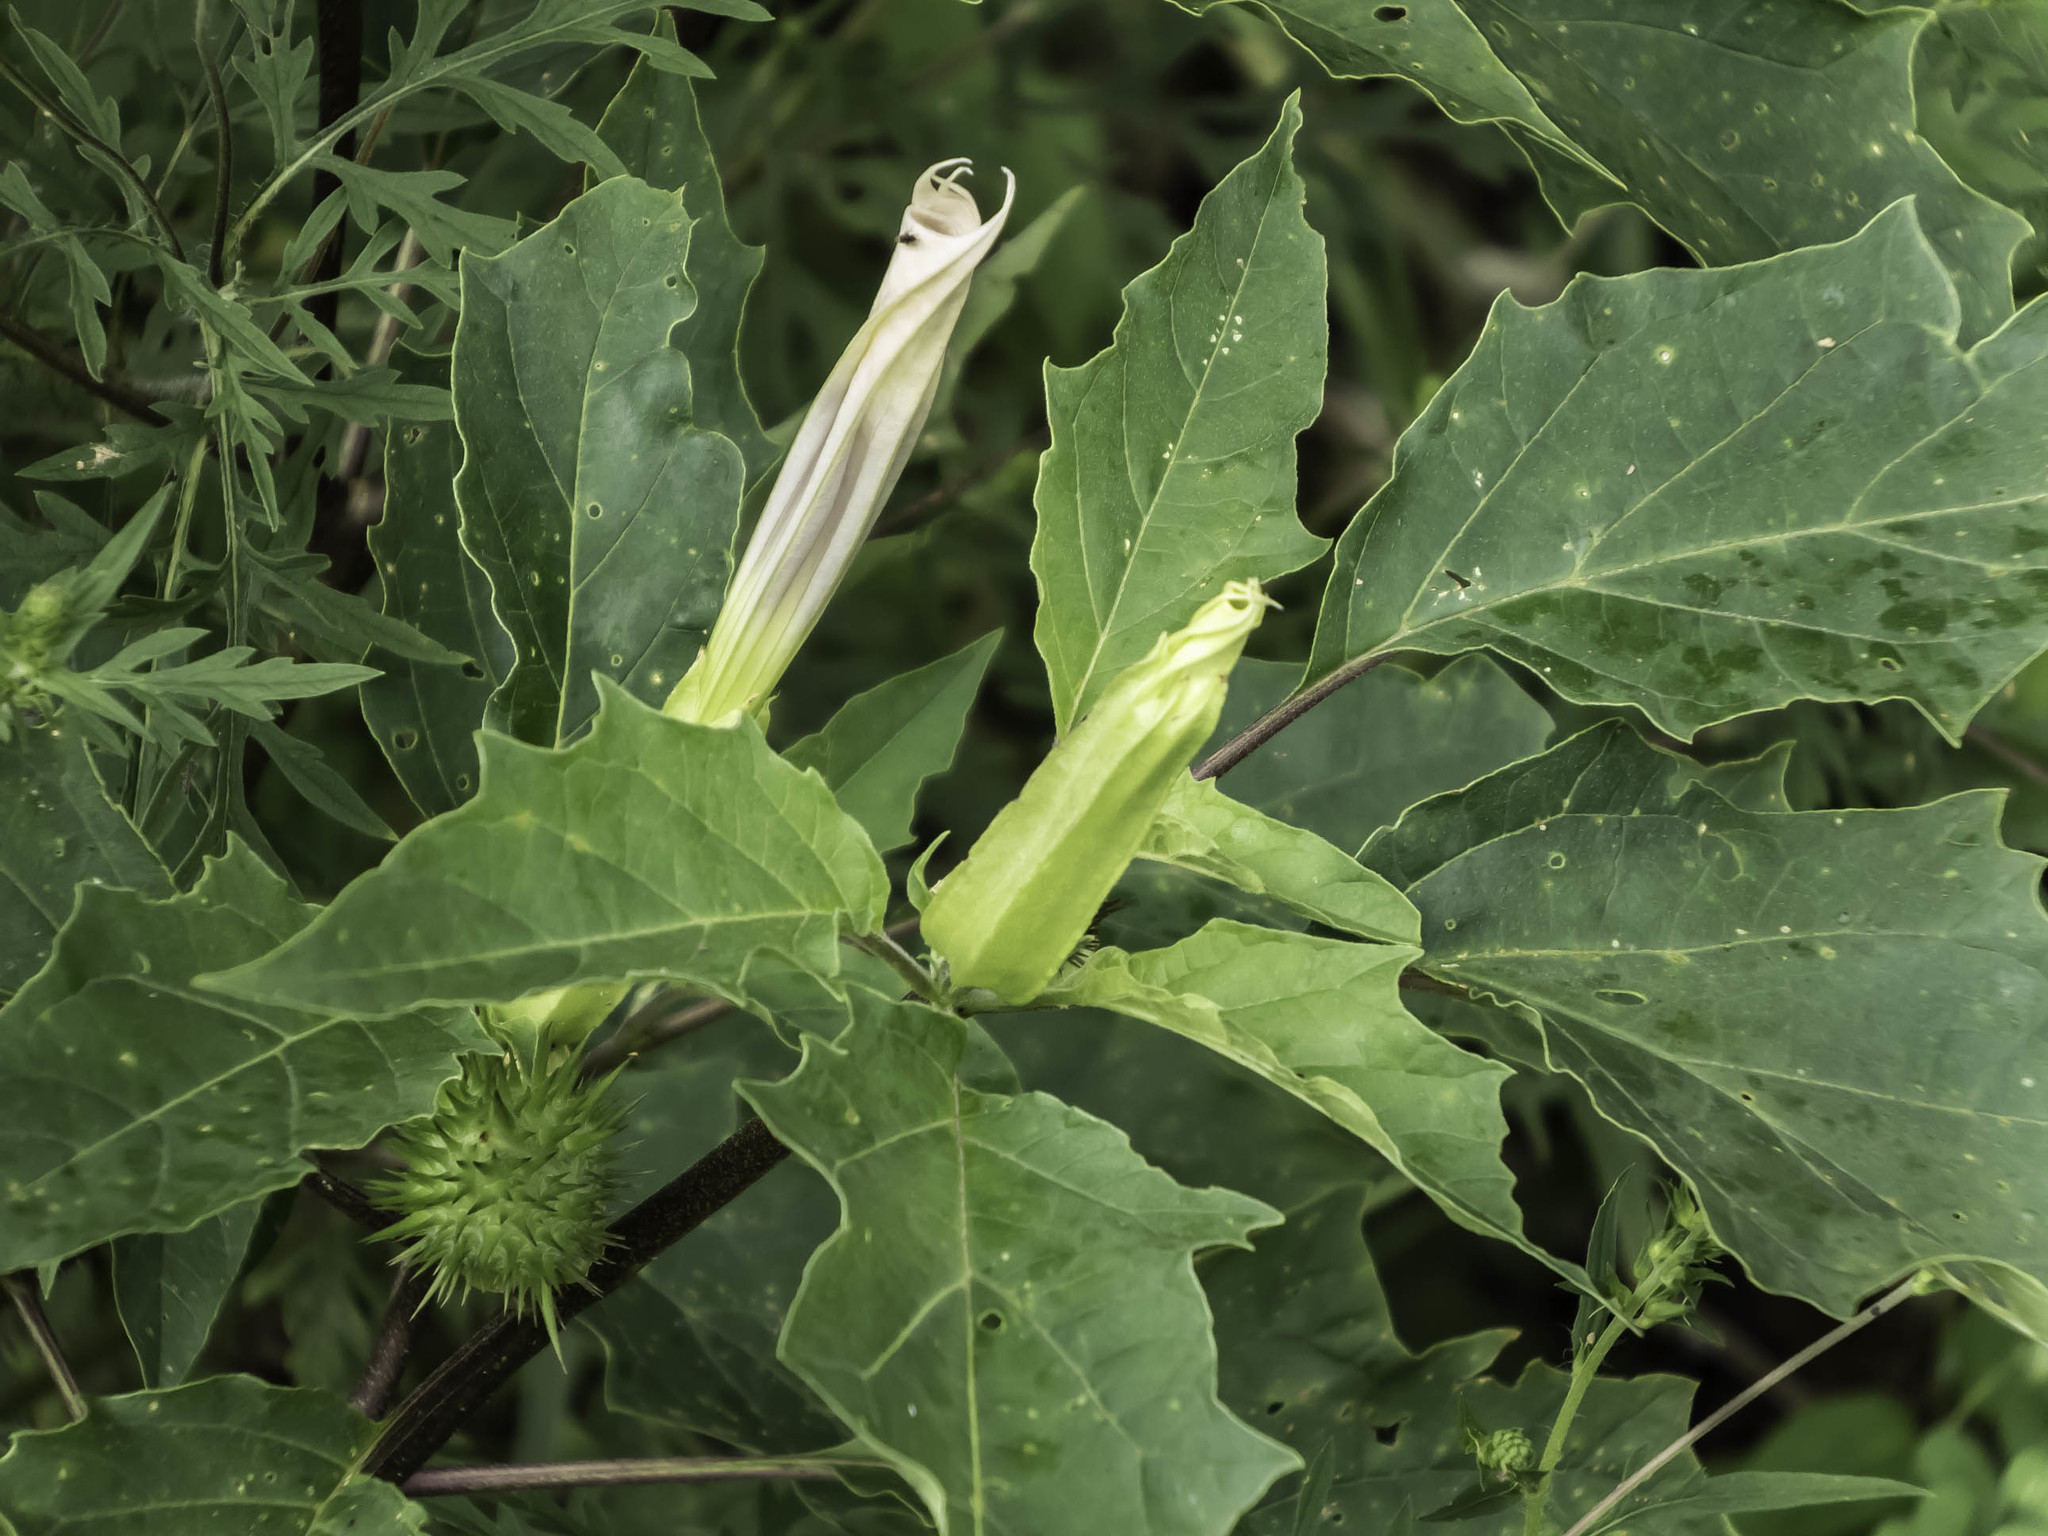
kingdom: Plantae
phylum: Tracheophyta
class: Magnoliopsida
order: Solanales
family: Solanaceae
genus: Datura
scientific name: Datura stramonium
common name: Thorn-apple
